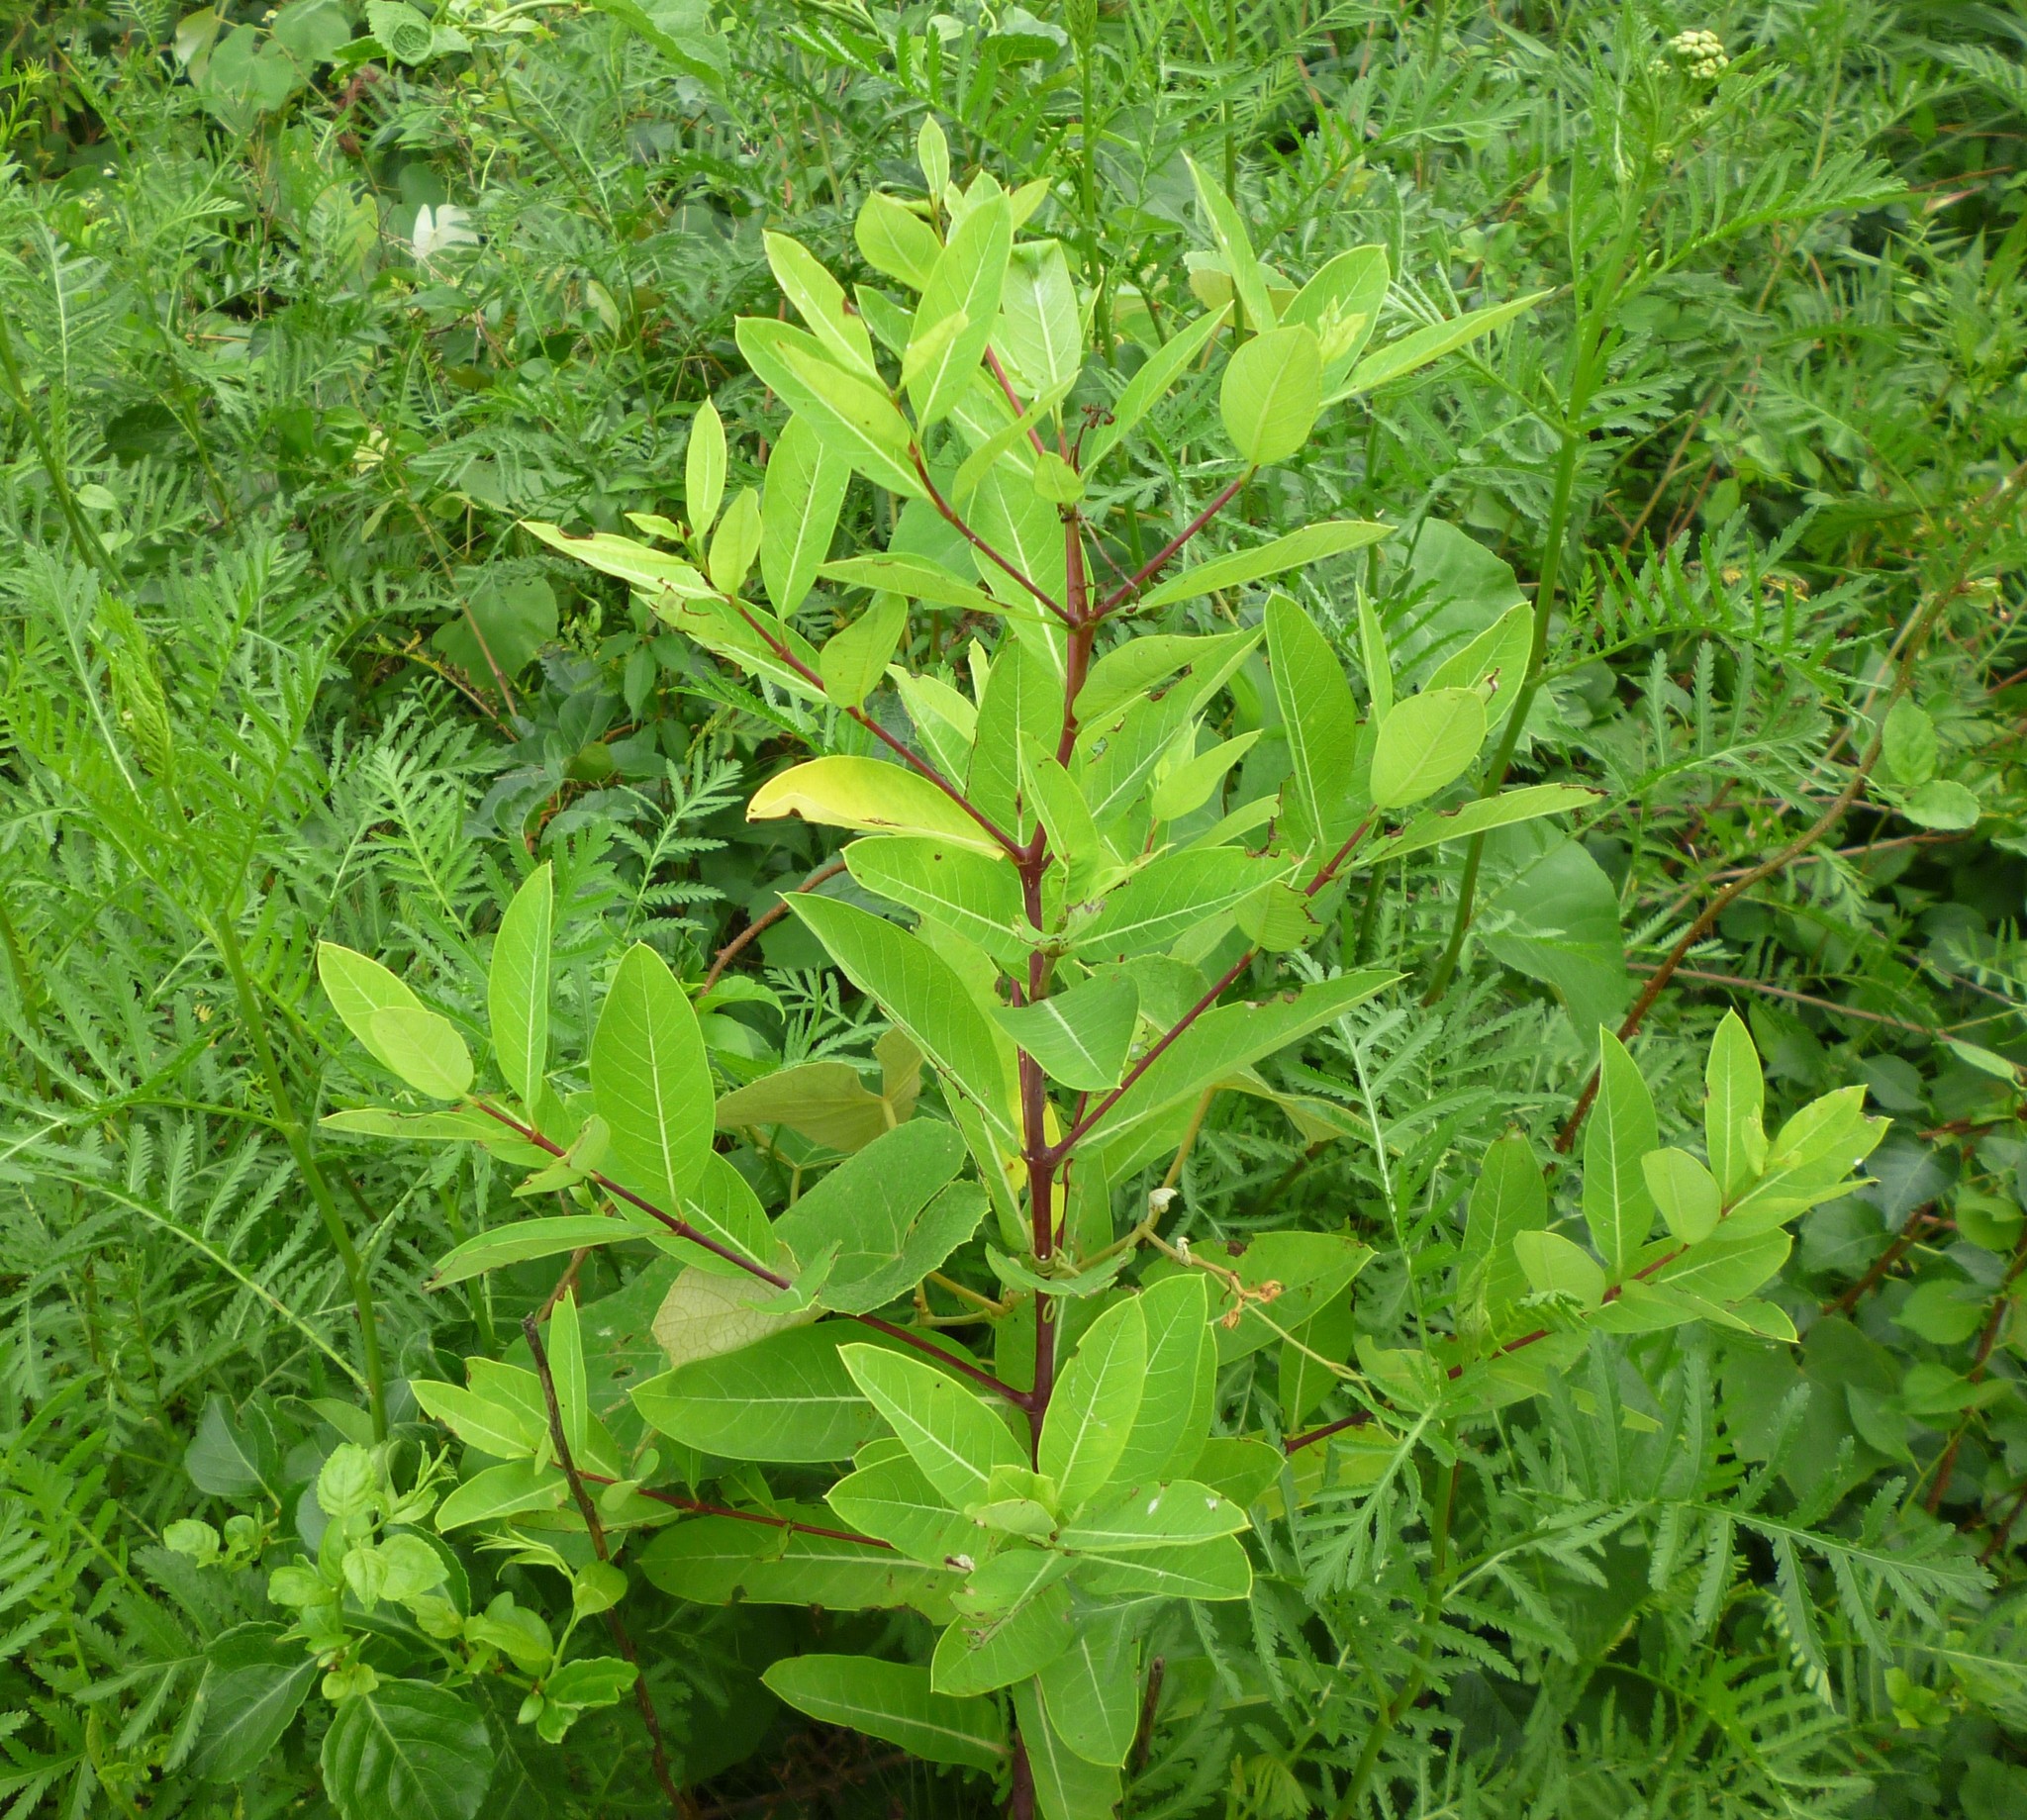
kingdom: Plantae
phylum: Tracheophyta
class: Magnoliopsida
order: Gentianales
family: Apocynaceae
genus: Apocynum
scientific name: Apocynum cannabinum
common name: Hemp dogbane
